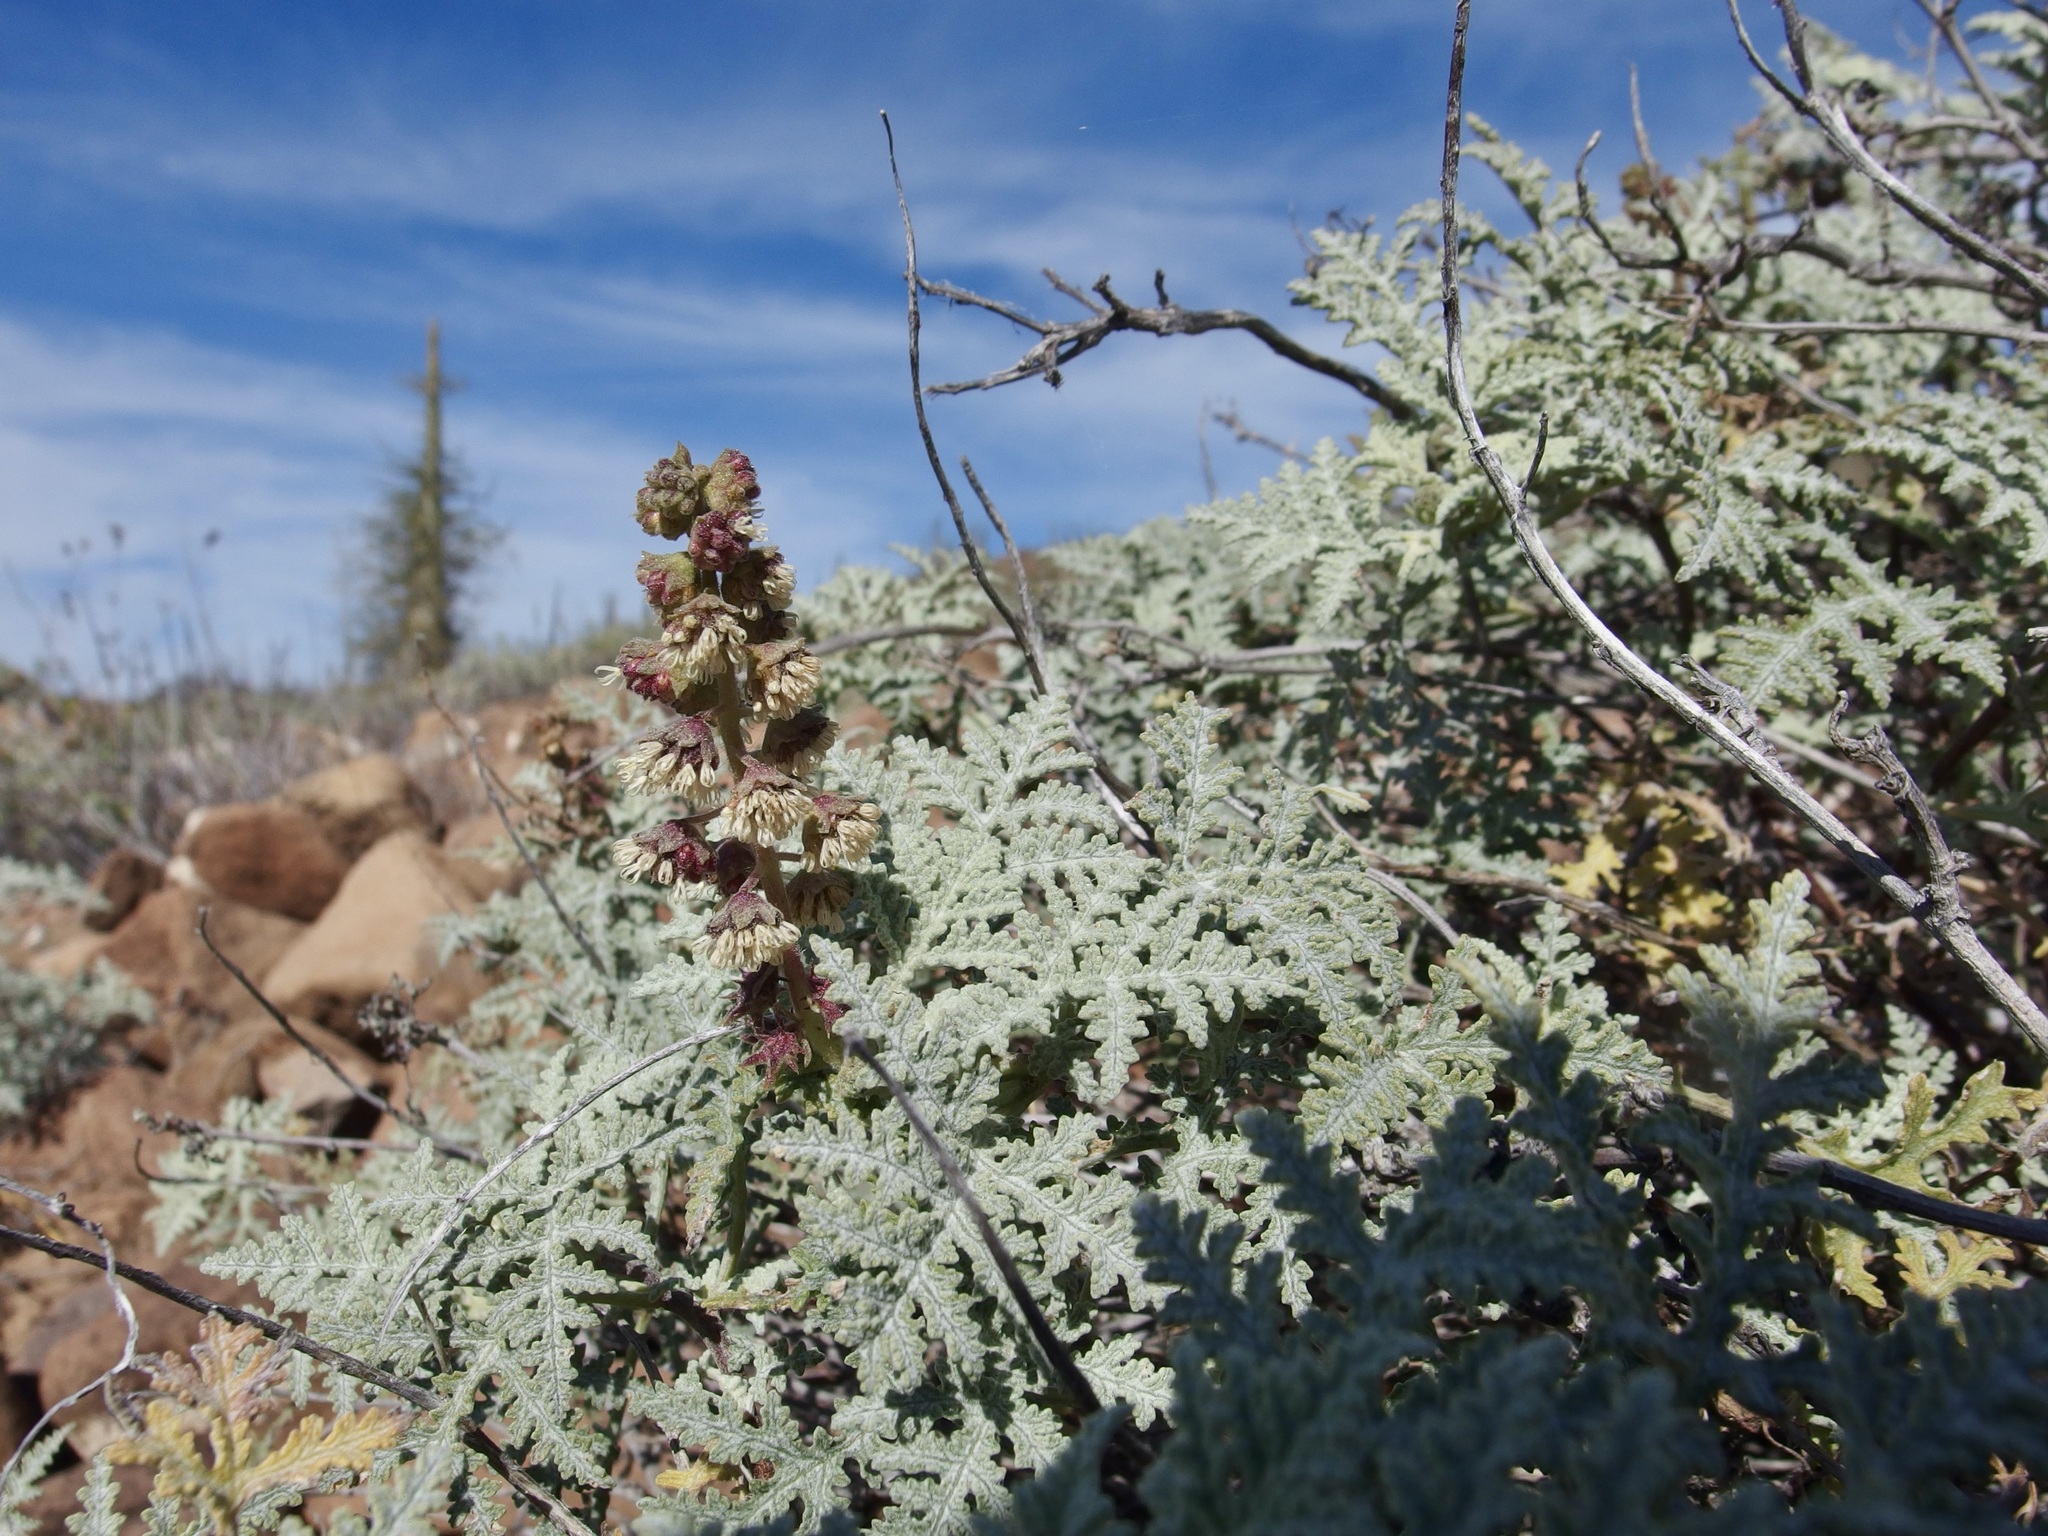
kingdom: Plantae
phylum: Tracheophyta
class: Magnoliopsida
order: Asterales
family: Asteraceae
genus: Ambrosia
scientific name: Ambrosia camphorata
